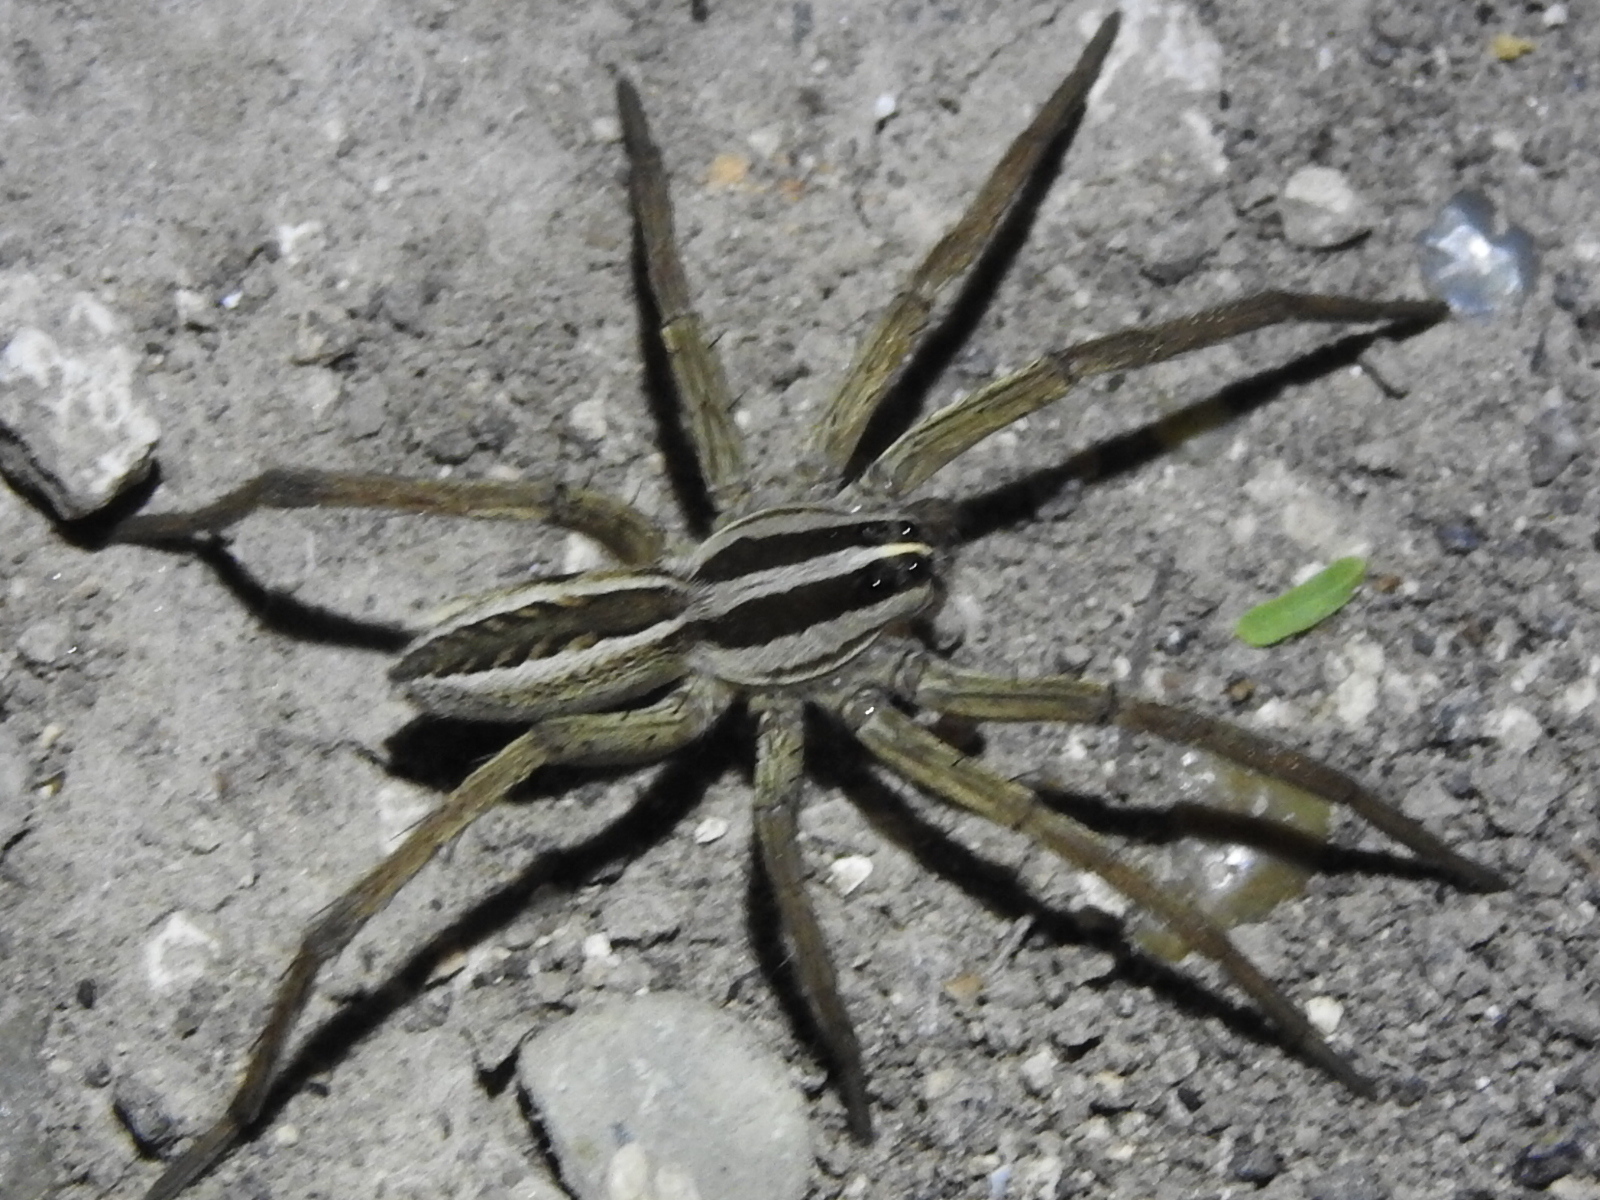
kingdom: Animalia
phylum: Arthropoda
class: Arachnida
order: Araneae
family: Lycosidae
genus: Rabidosa
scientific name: Rabidosa rabida
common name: Rabid wolf spider
